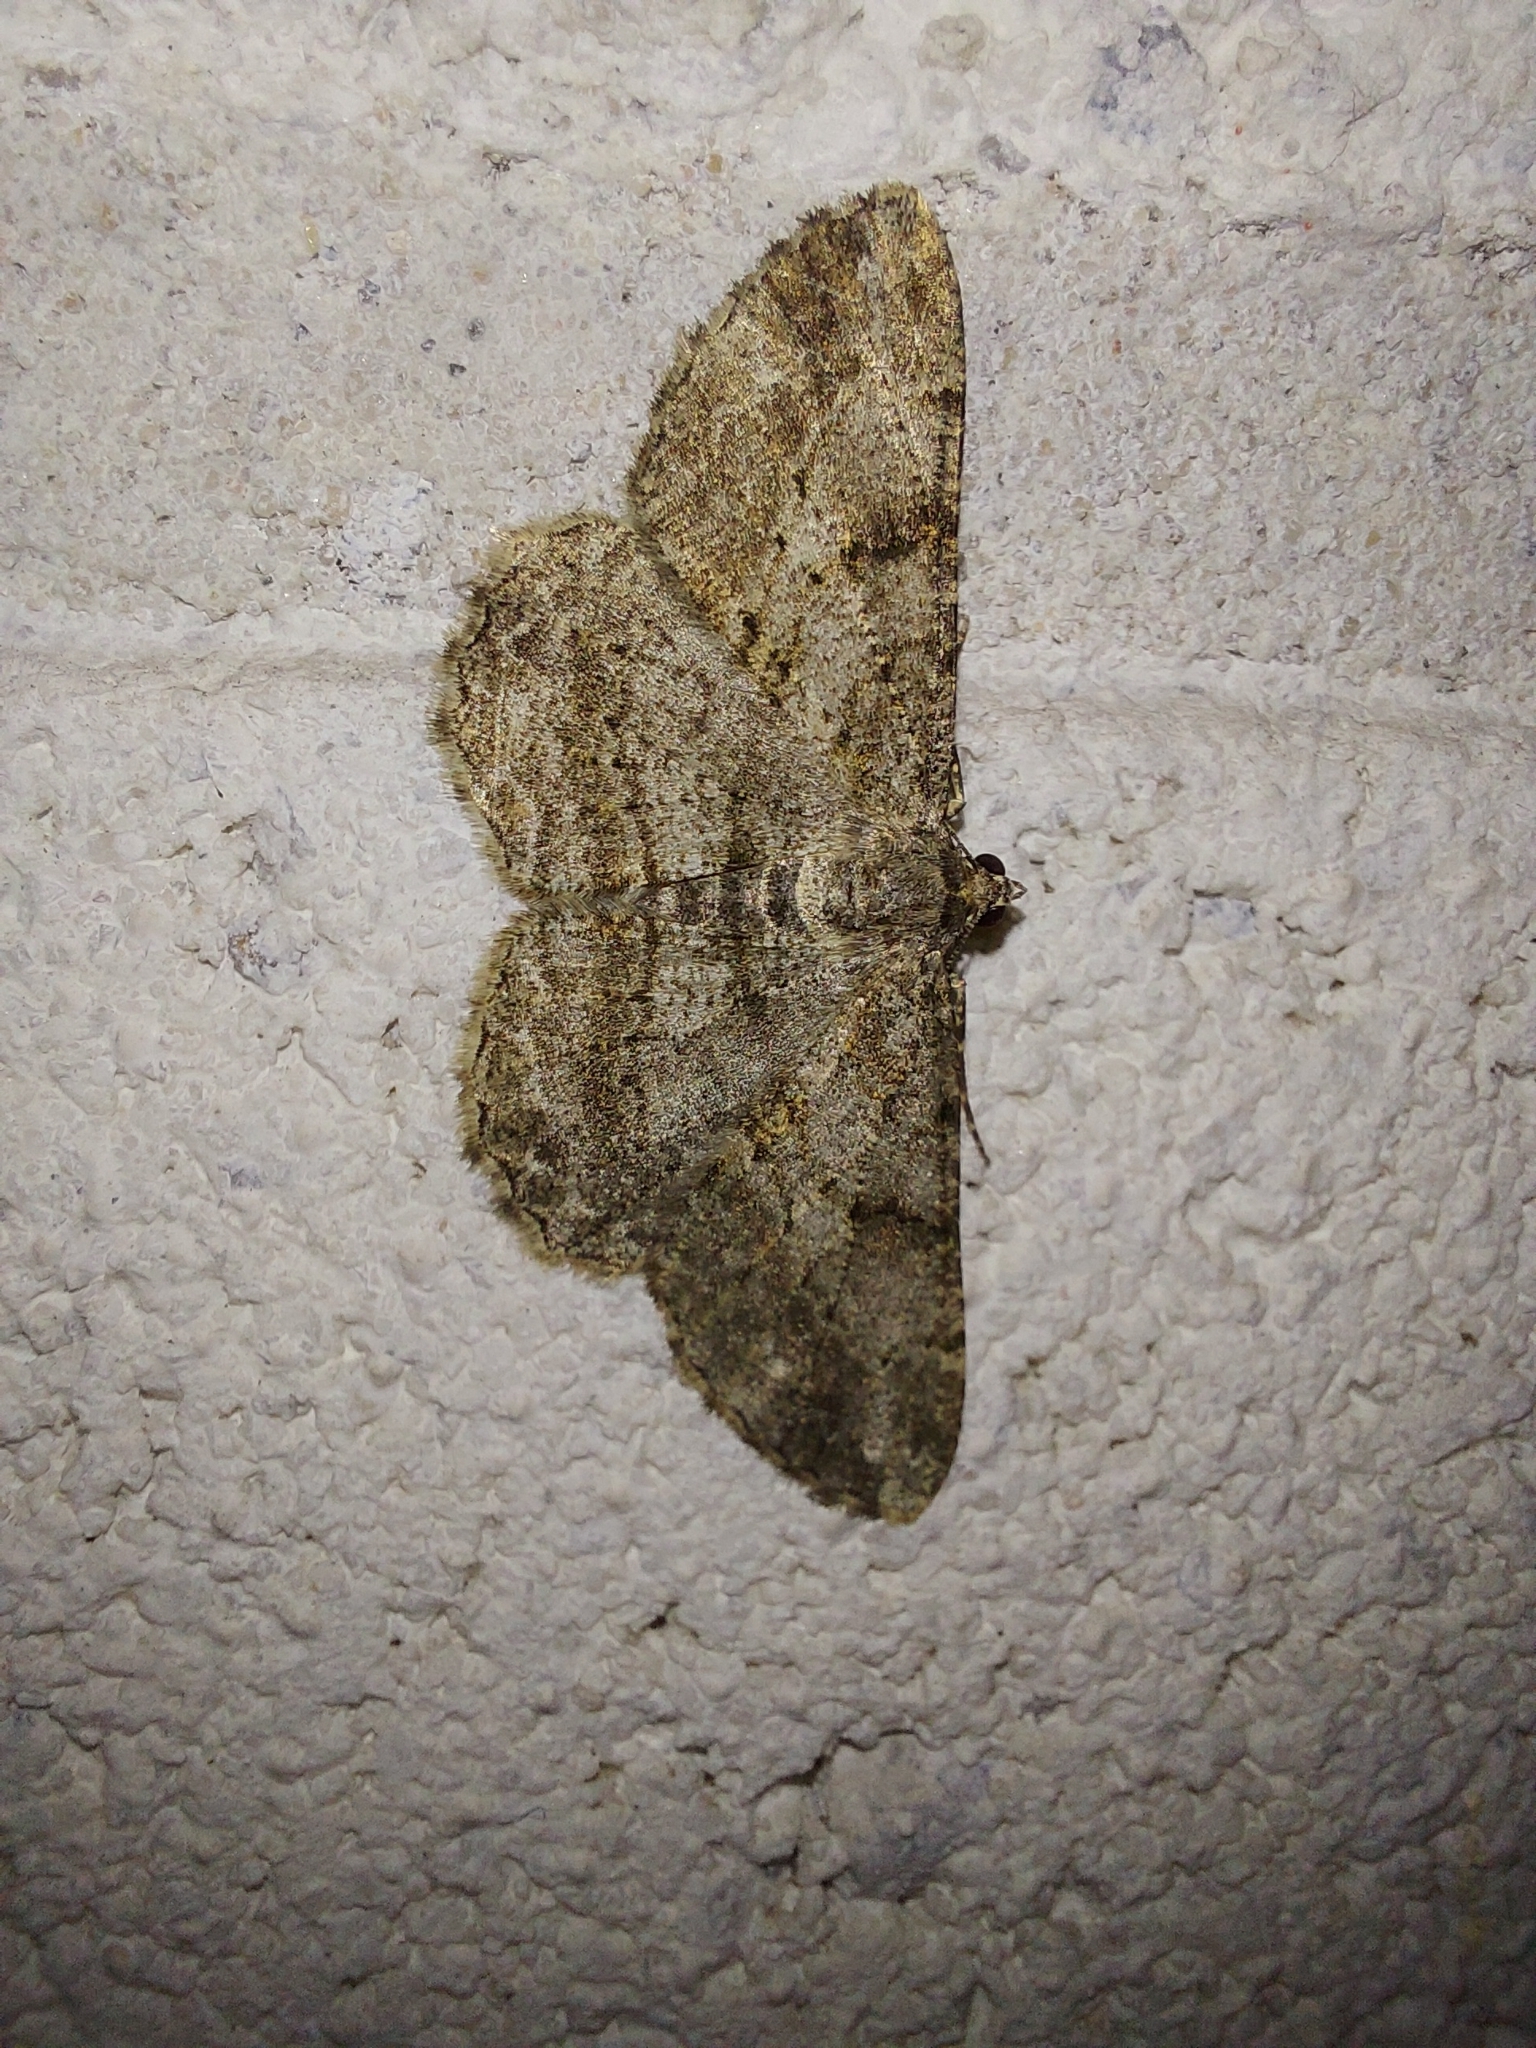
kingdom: Animalia
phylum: Arthropoda
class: Insecta
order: Lepidoptera
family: Geometridae
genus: Peribatodes
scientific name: Peribatodes rhomboidaria
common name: Willow beauty
